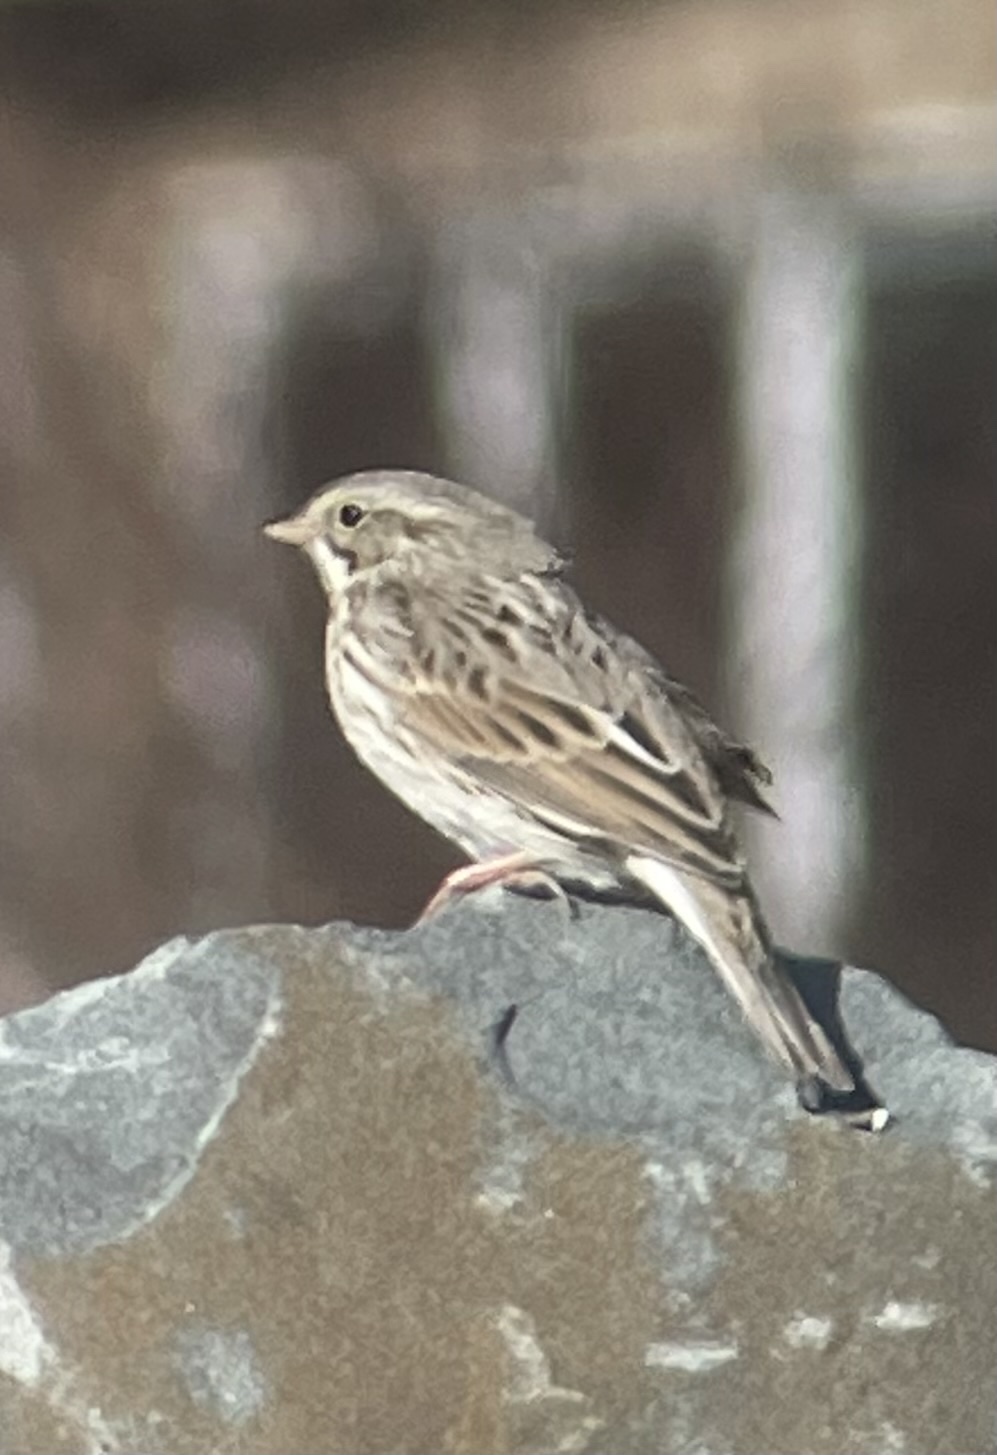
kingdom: Animalia
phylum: Chordata
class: Aves
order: Passeriformes
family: Passerellidae
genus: Passerculus
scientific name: Passerculus sandwichensis
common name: Savannah sparrow
